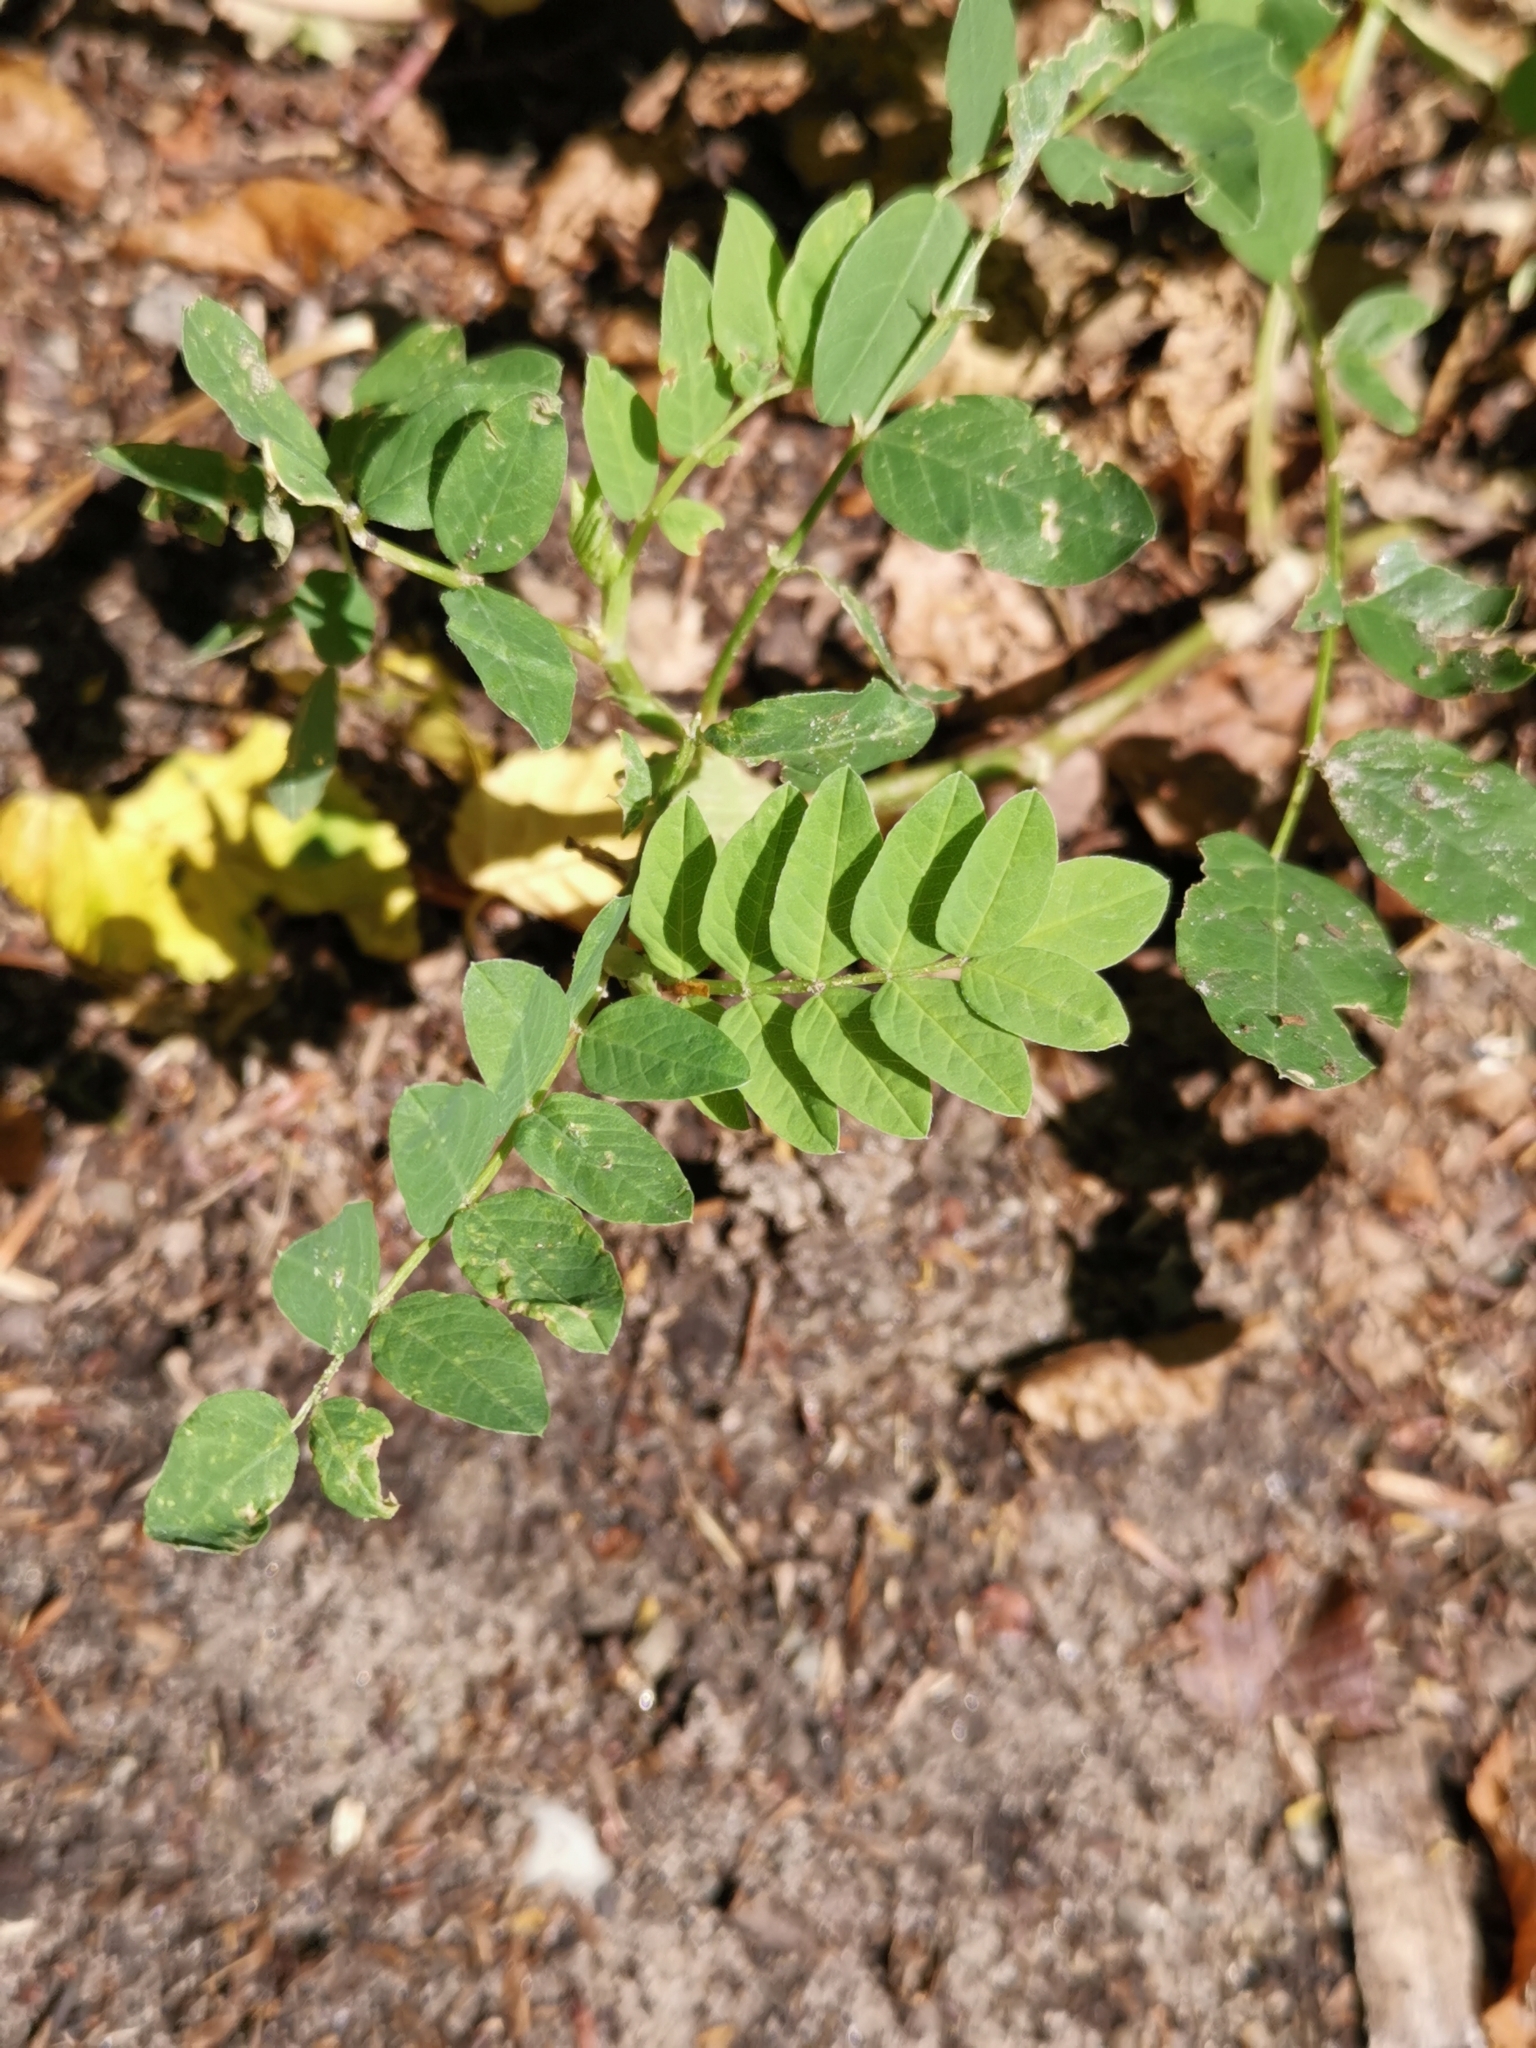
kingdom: Plantae
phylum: Tracheophyta
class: Magnoliopsida
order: Fabales
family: Fabaceae
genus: Astragalus
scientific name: Astragalus glycyphyllos
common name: Wild liquorice
